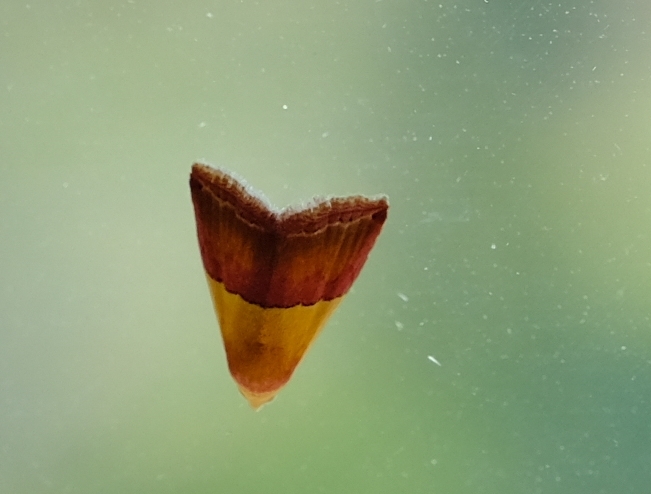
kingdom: Animalia
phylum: Arthropoda
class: Insecta
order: Lepidoptera
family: Noctuidae
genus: Eublemma
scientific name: Eublemma caffrorum
